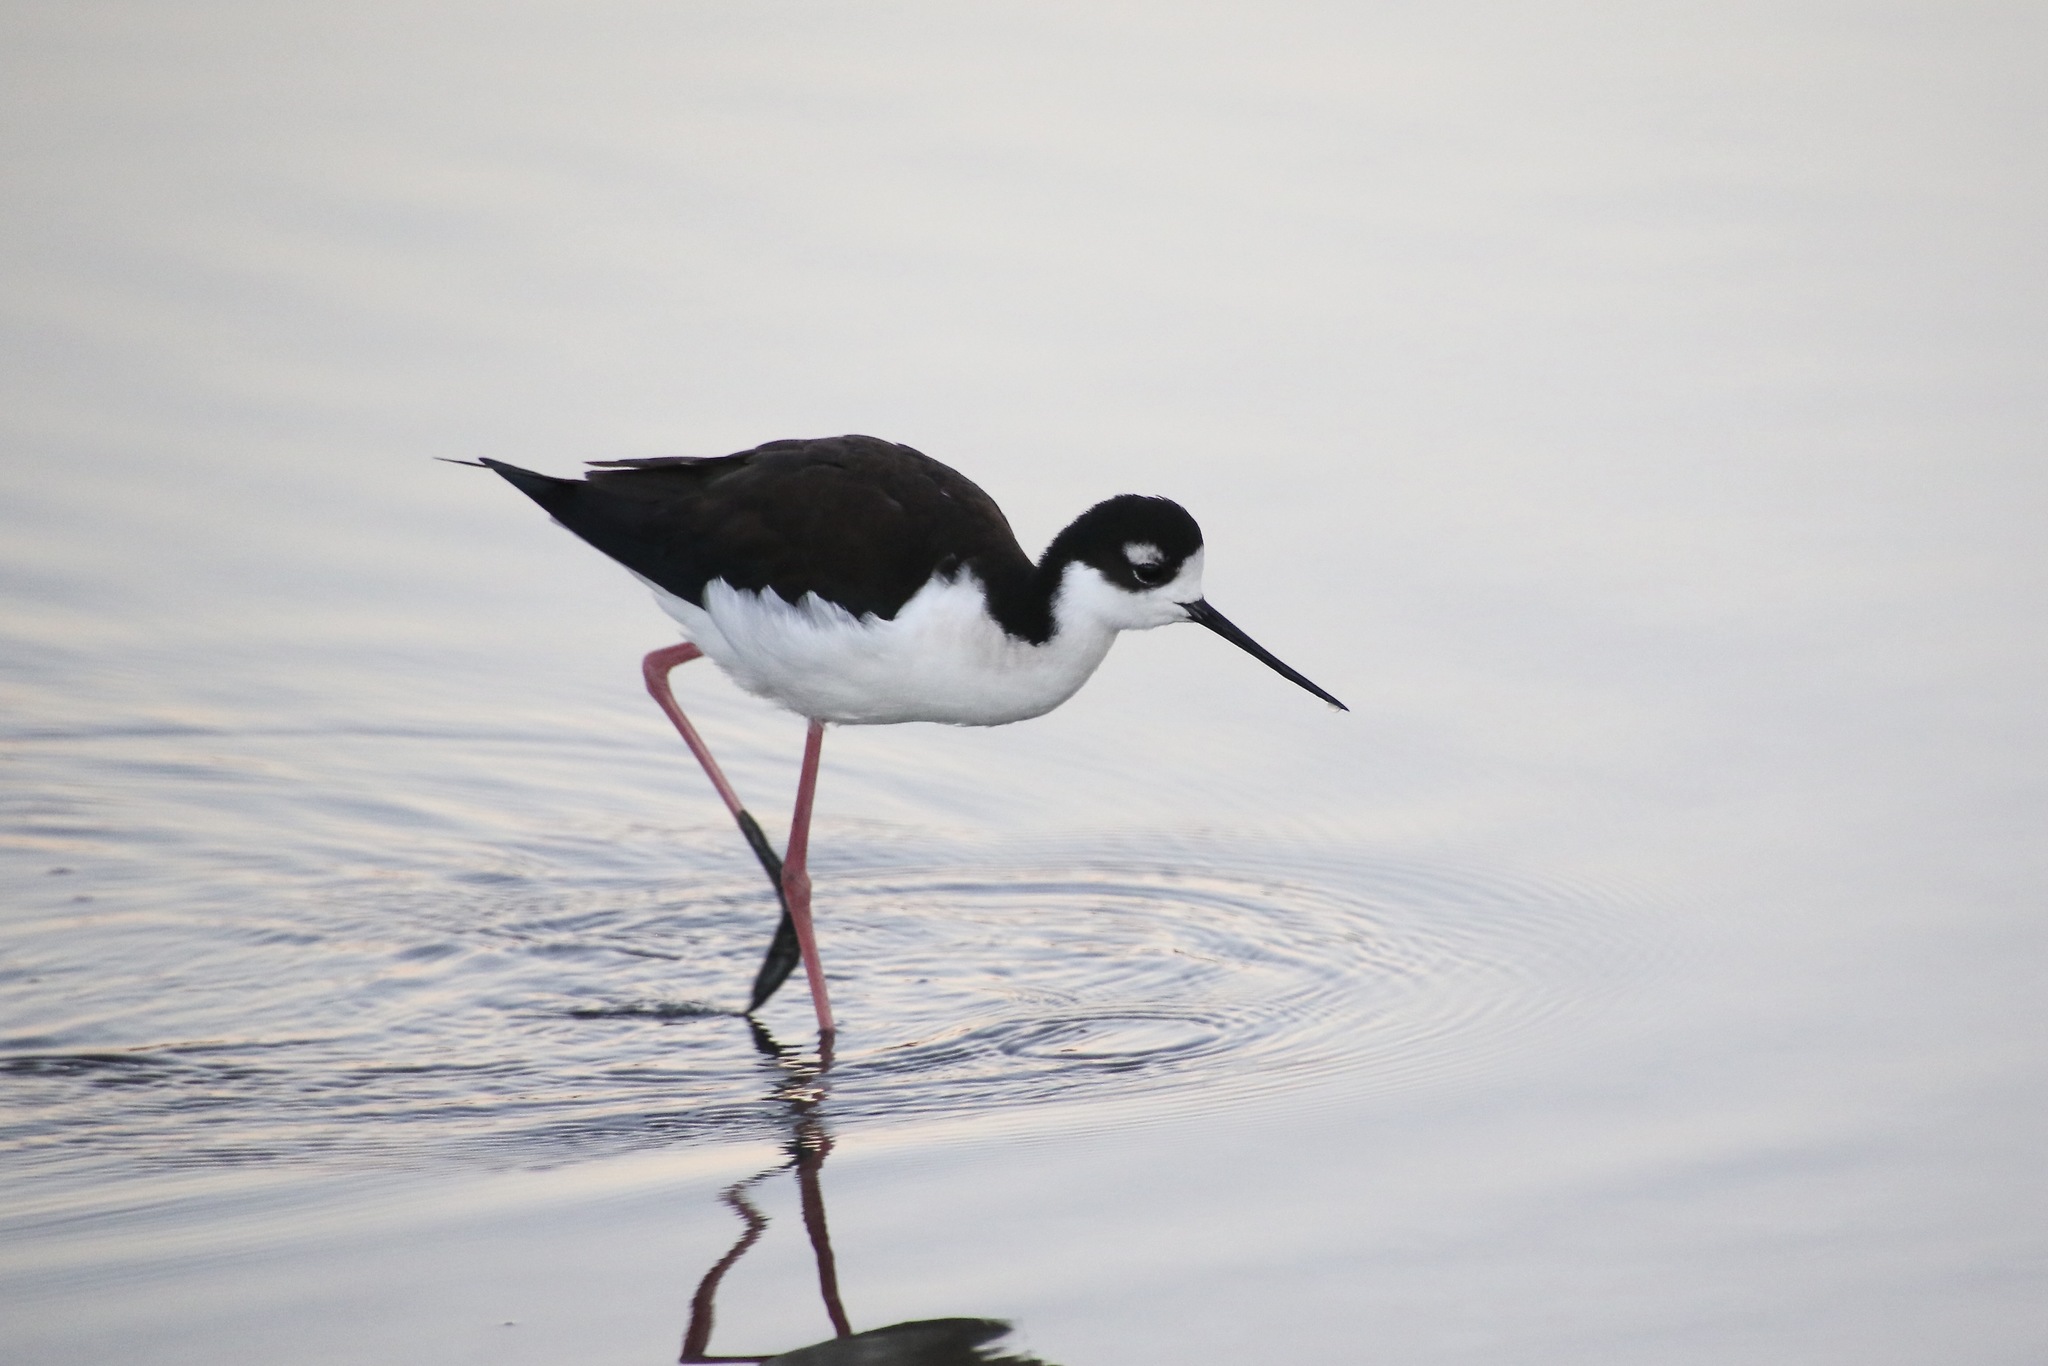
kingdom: Animalia
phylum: Chordata
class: Aves
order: Charadriiformes
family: Recurvirostridae
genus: Himantopus
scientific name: Himantopus mexicanus
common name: Black-necked stilt
